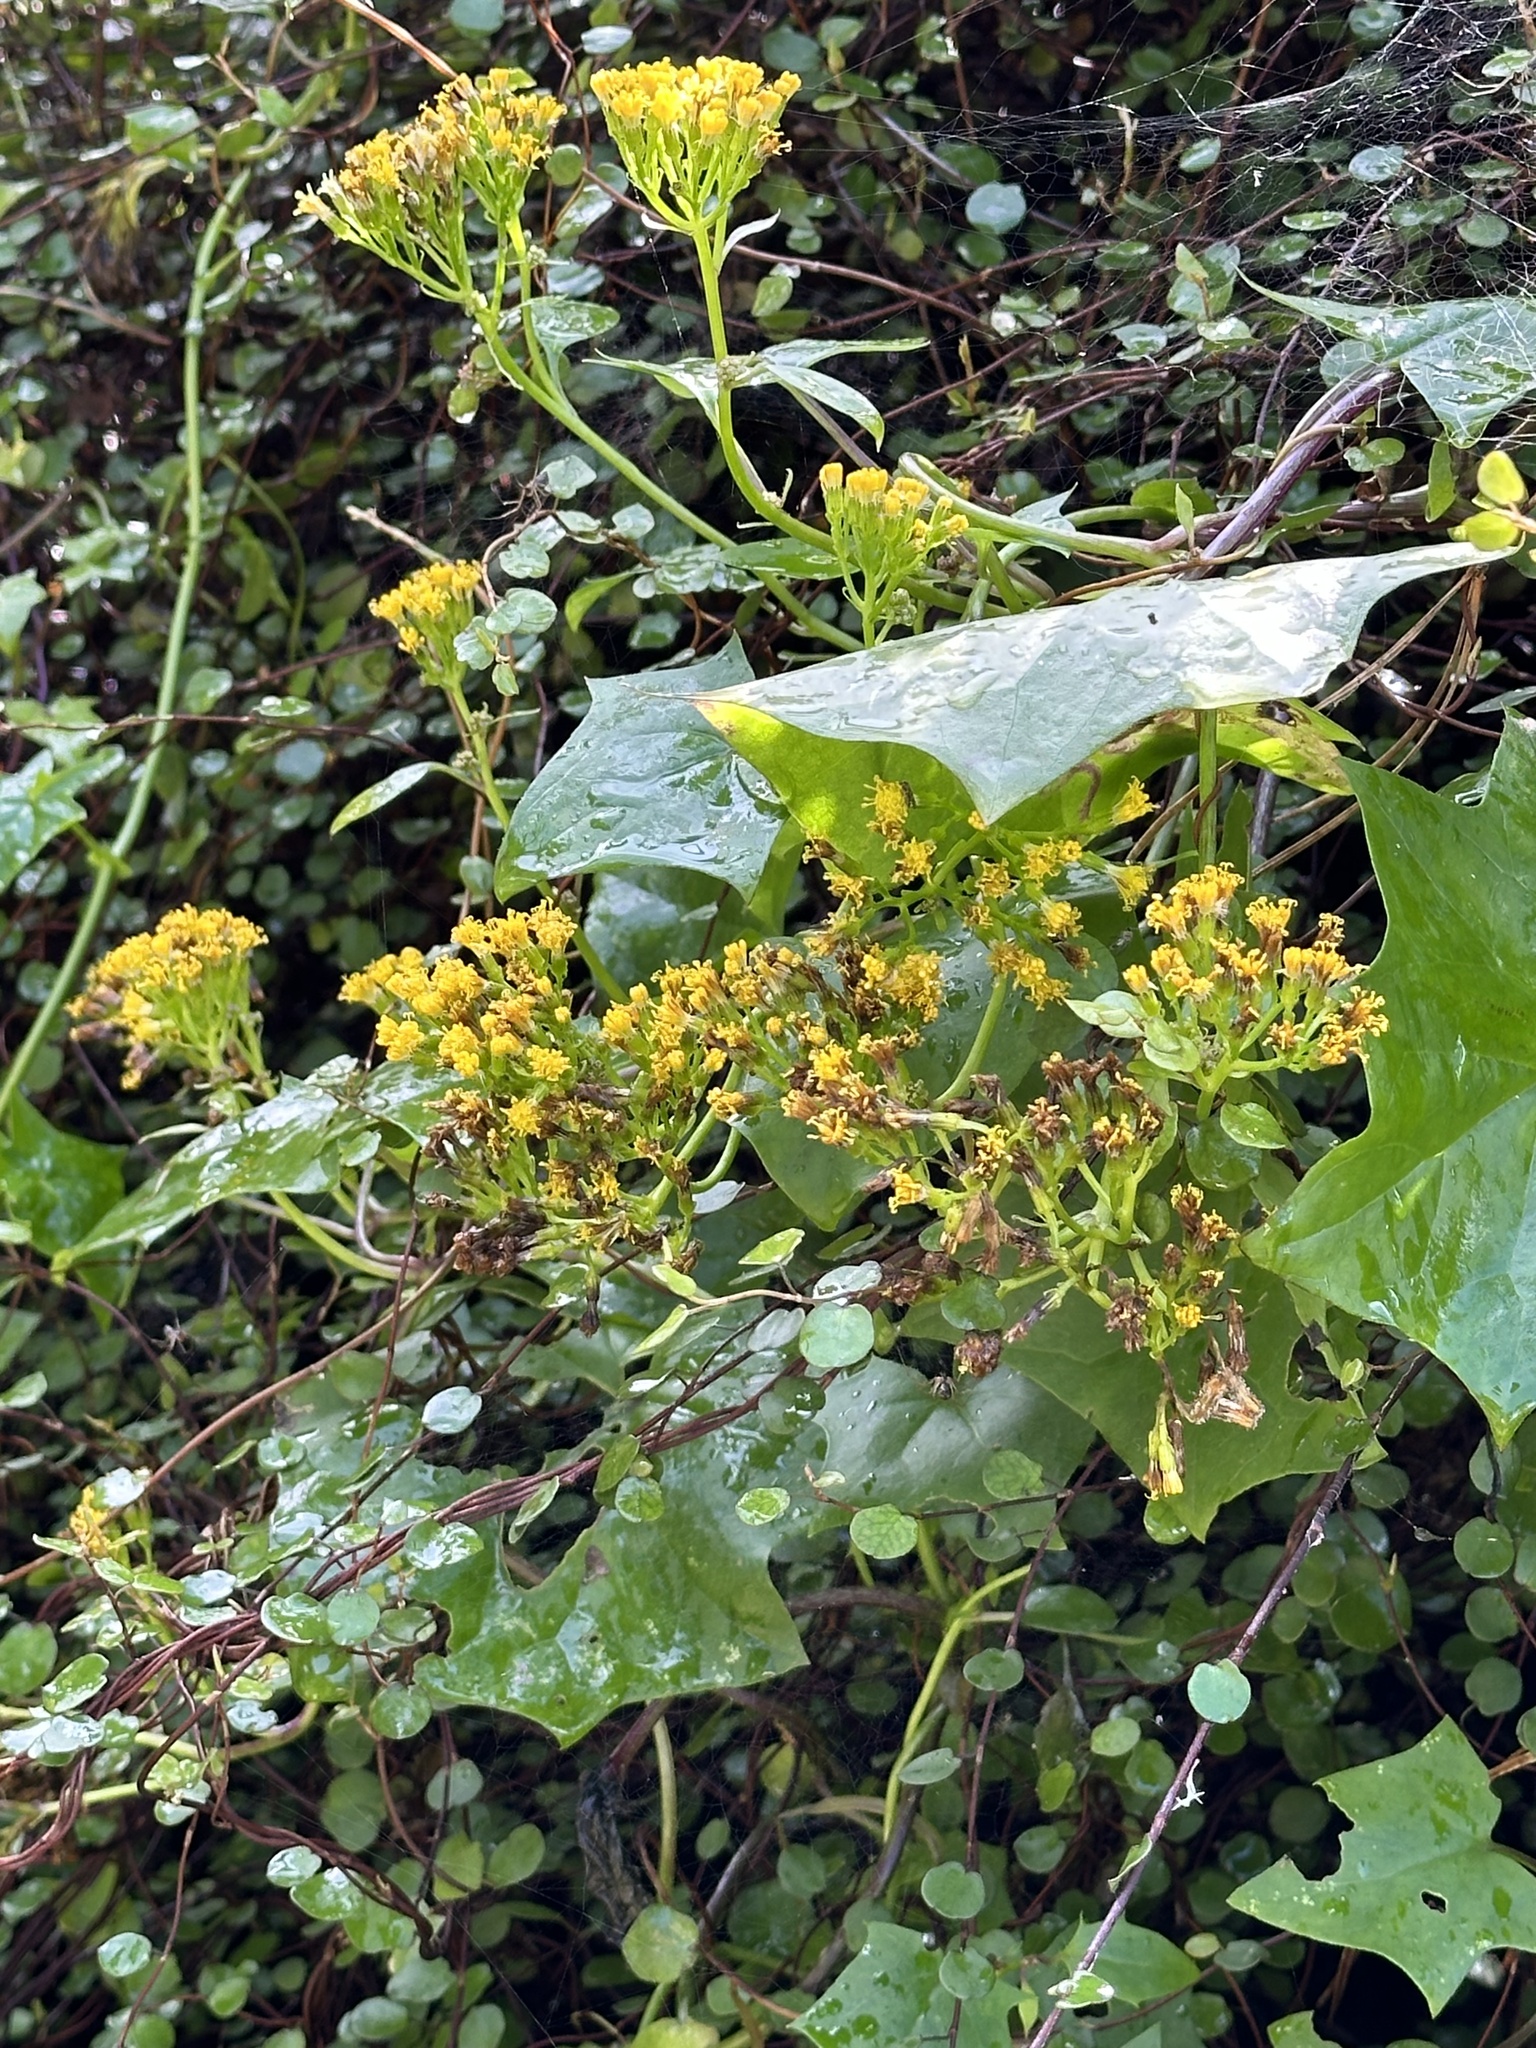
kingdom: Plantae
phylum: Tracheophyta
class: Magnoliopsida
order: Asterales
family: Asteraceae
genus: Delairea
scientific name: Delairea odorata
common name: Cape-ivy
